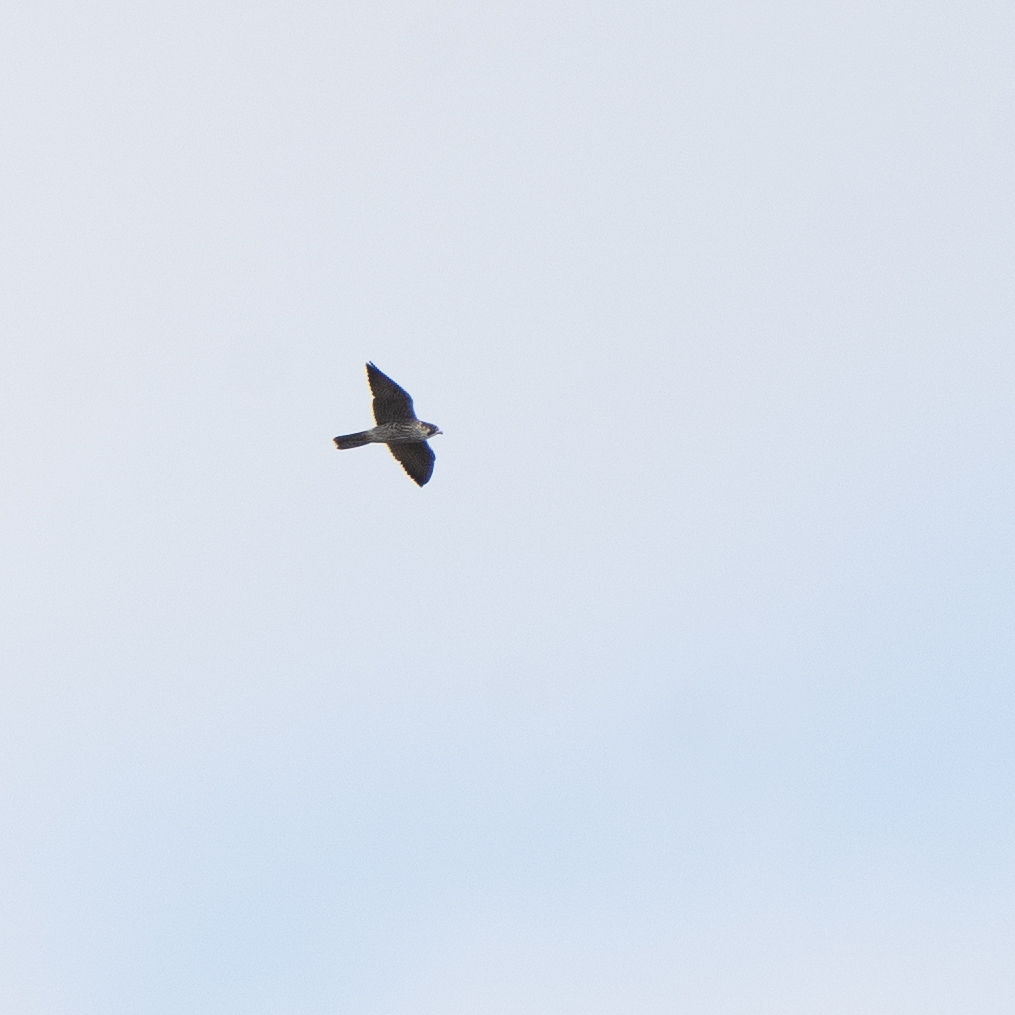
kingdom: Animalia
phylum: Chordata
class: Aves
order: Falconiformes
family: Falconidae
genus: Falco
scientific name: Falco peregrinus
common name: Peregrine falcon
